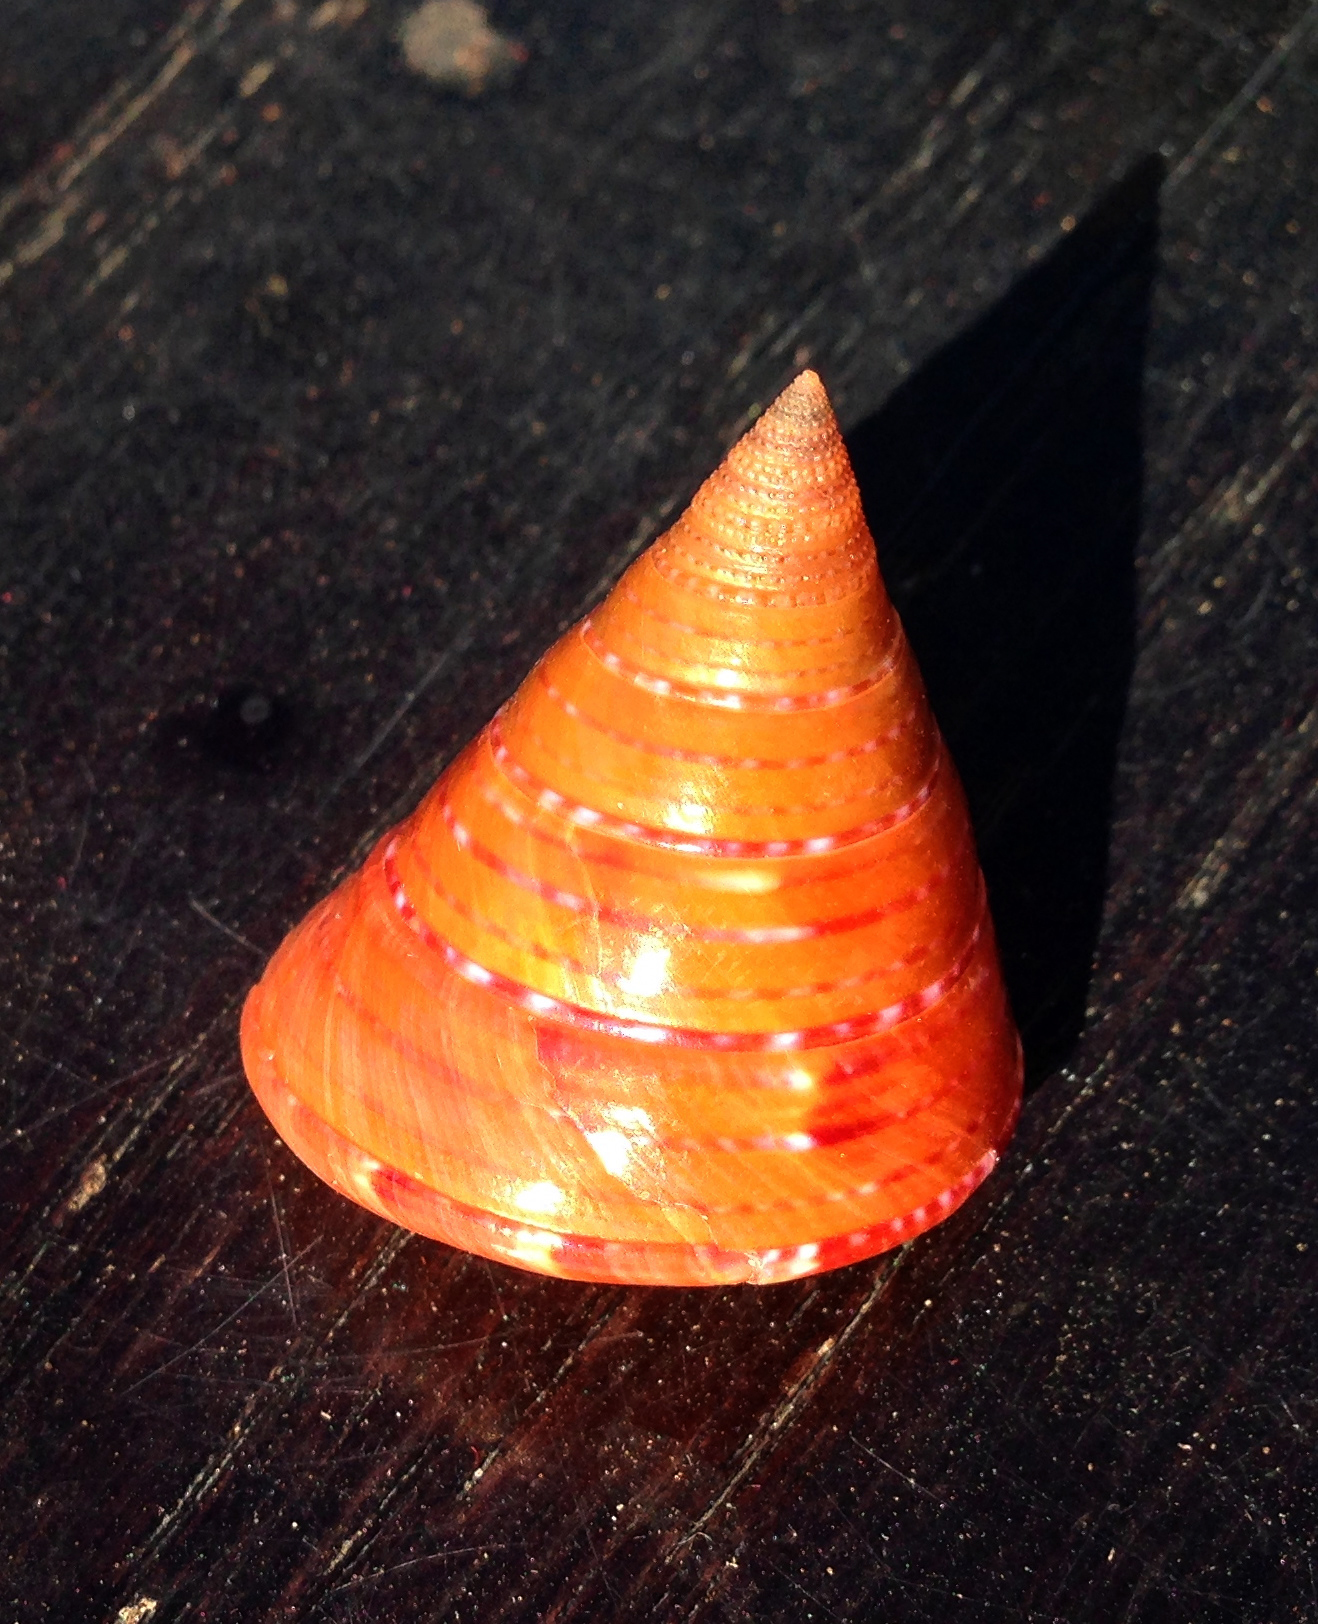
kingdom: Animalia
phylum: Mollusca
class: Gastropoda
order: Trochida
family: Calliostomatidae
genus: Calliostoma
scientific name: Calliostoma conulus
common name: Rusty topsnail
